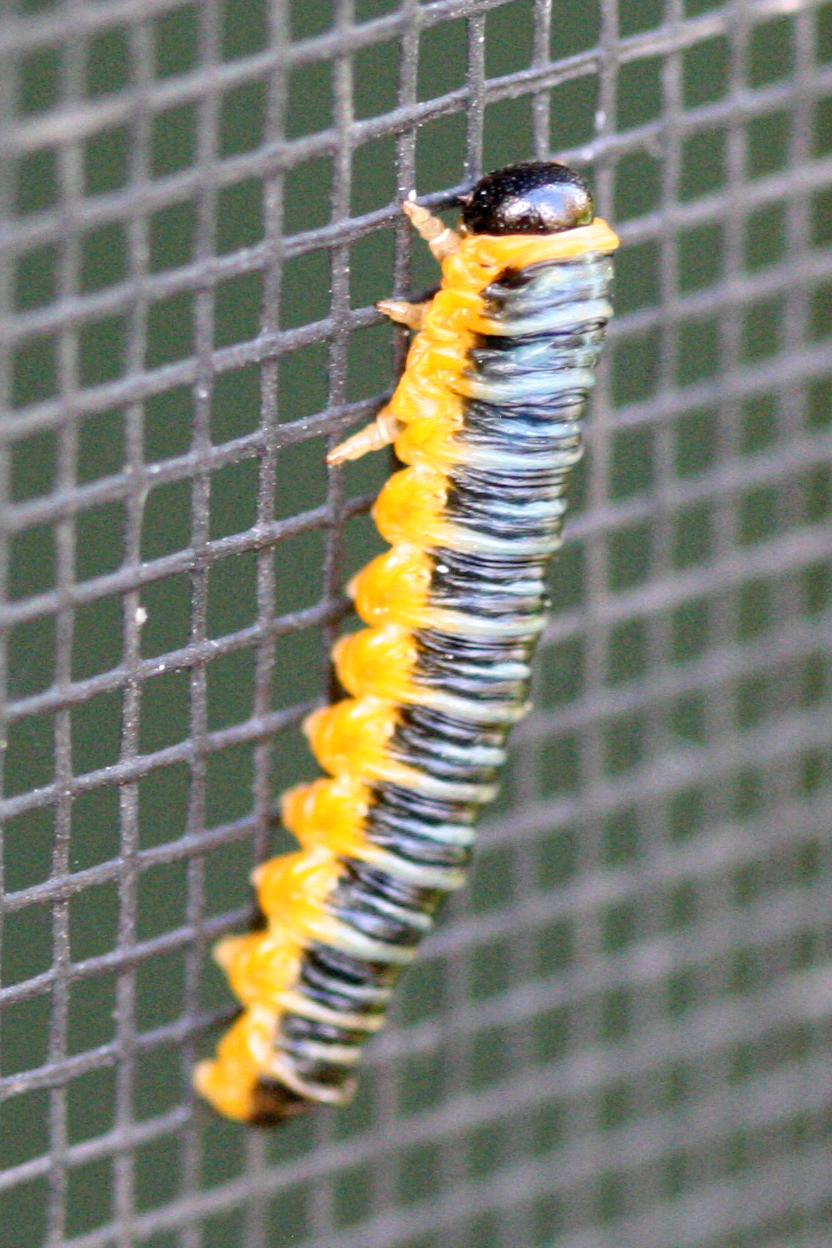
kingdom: Animalia
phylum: Arthropoda
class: Insecta
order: Hymenoptera
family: Tenthredinidae
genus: Macremphytus
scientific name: Macremphytus
